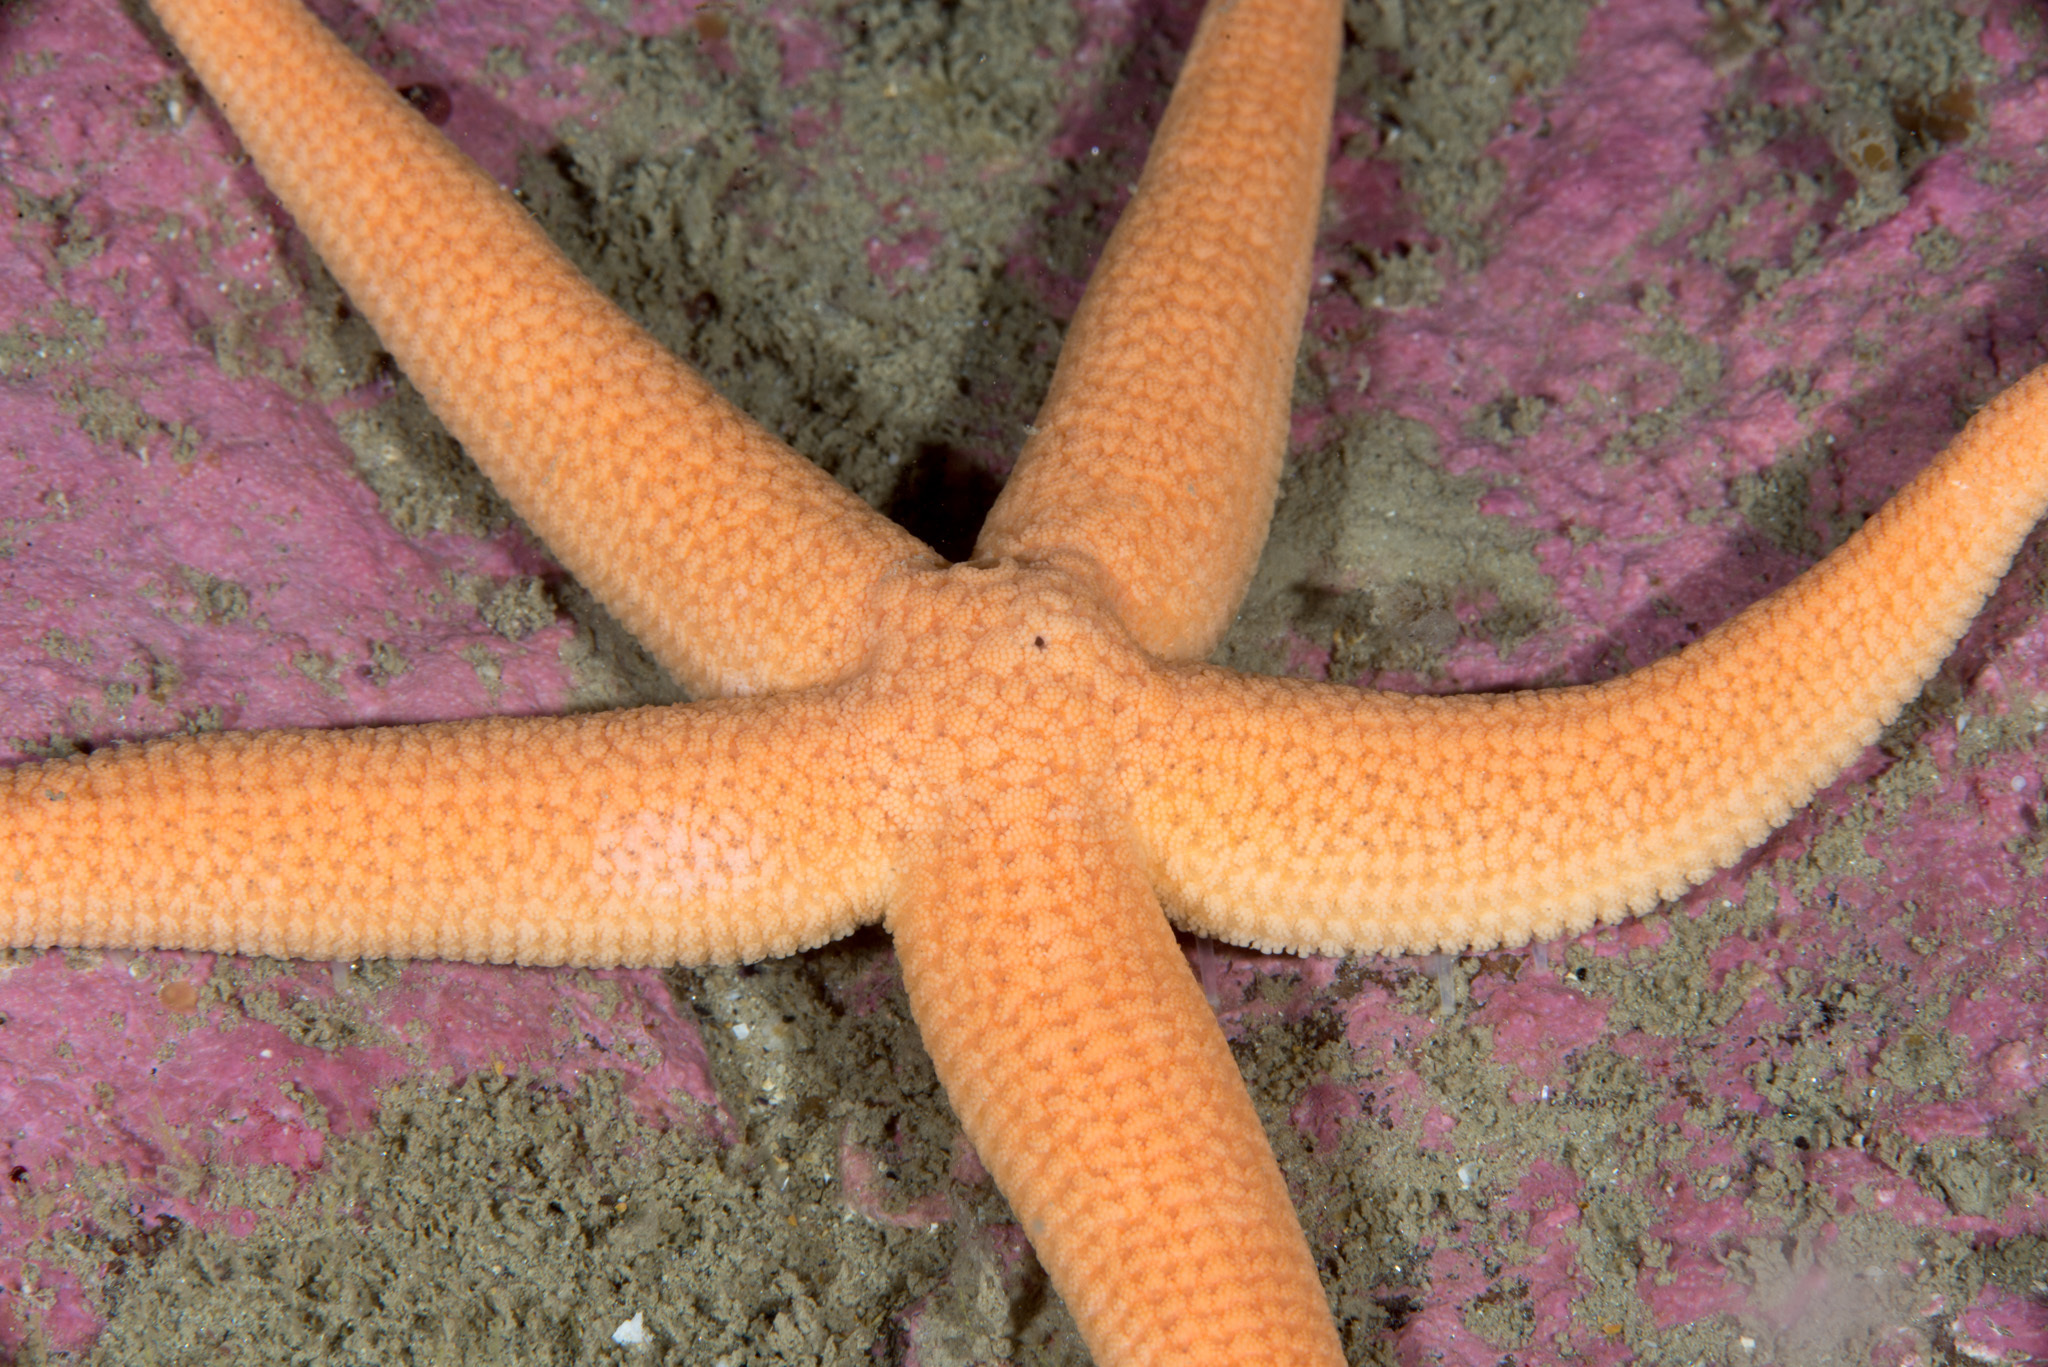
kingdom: Animalia
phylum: Echinodermata
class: Asteroidea
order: Forcipulatida
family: Stichasteridae
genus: Stichastrella
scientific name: Stichastrella rosea
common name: Rosy starfish
